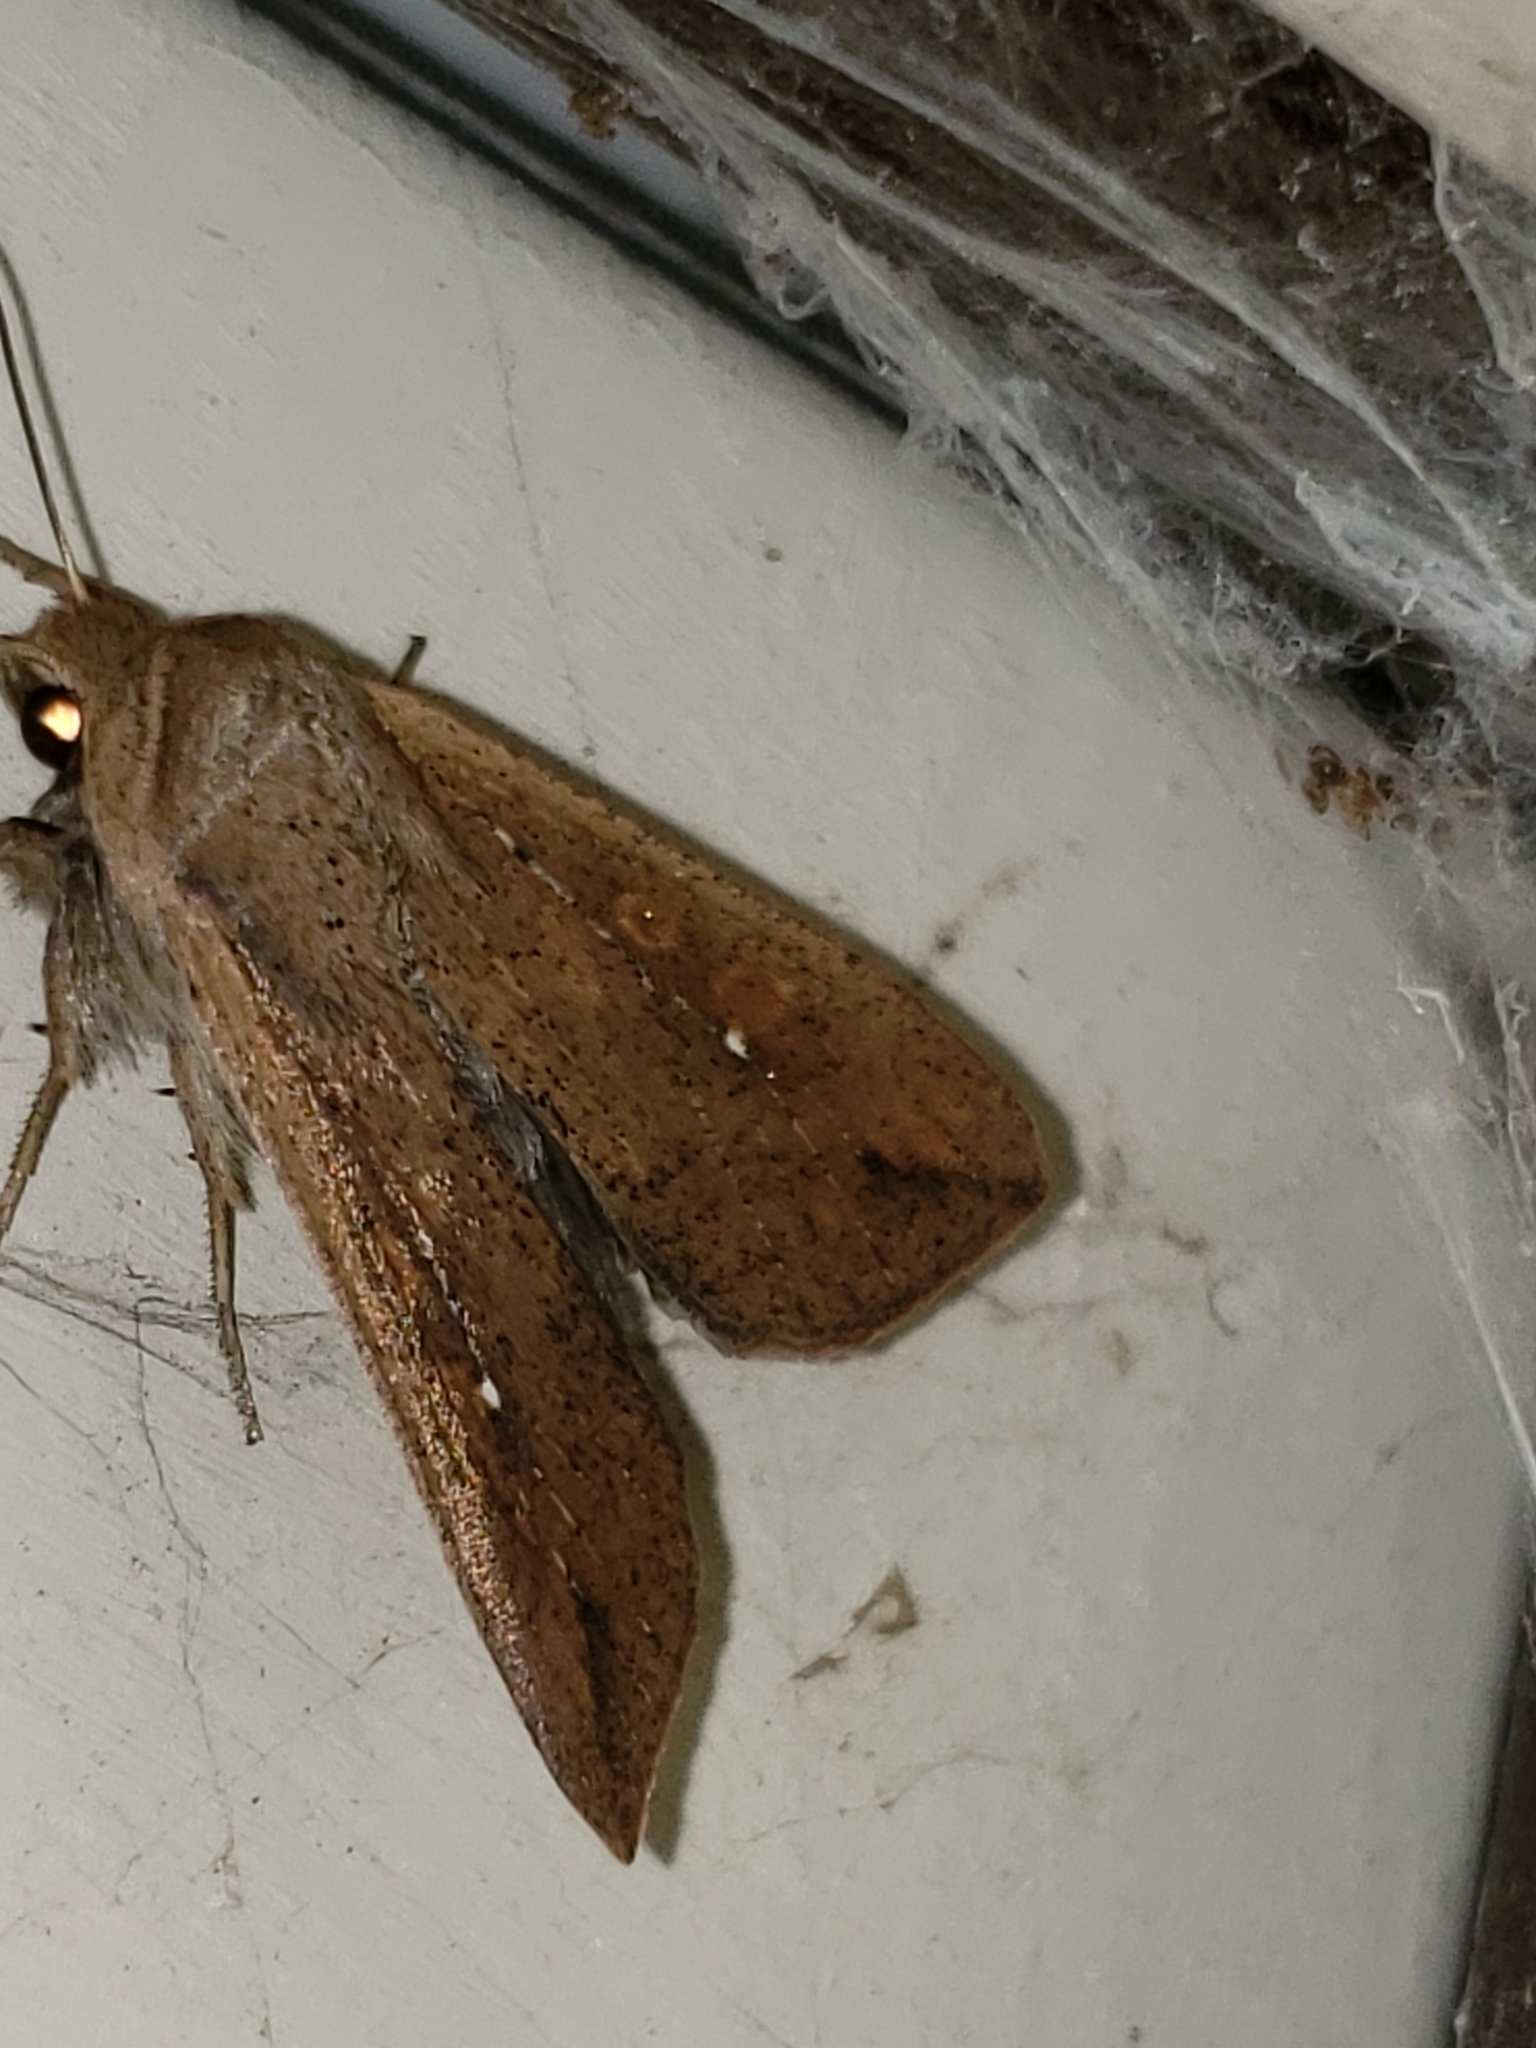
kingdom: Animalia
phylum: Arthropoda
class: Insecta
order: Lepidoptera
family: Noctuidae
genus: Mythimna
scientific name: Mythimna unipuncta
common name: White-speck
